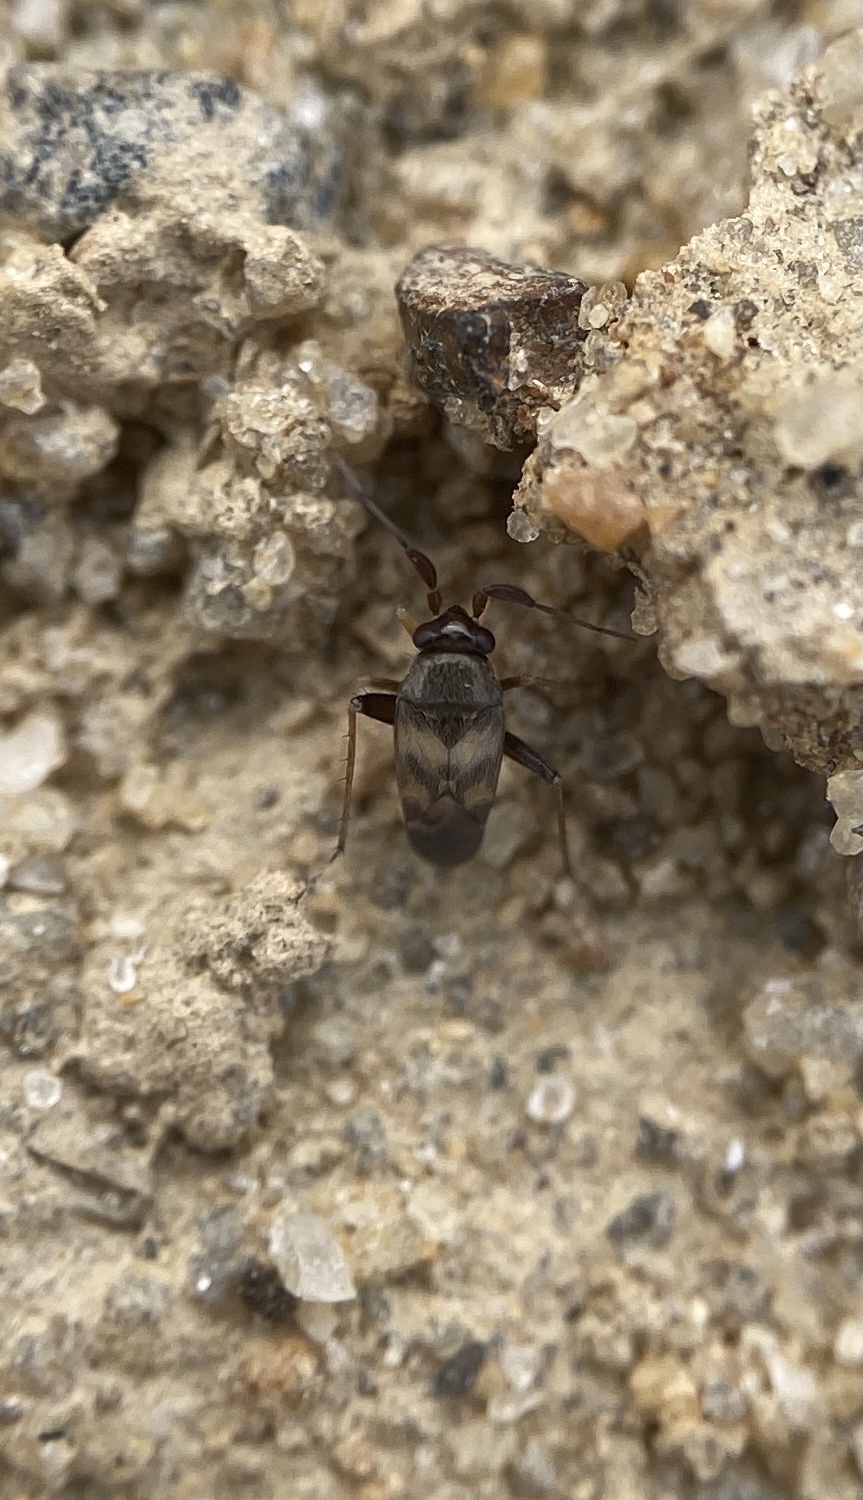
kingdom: Animalia
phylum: Arthropoda
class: Insecta
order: Hemiptera
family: Miridae
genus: Spanagonicus
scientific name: Spanagonicus albofasciatus
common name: Whitemarked fleahopper
